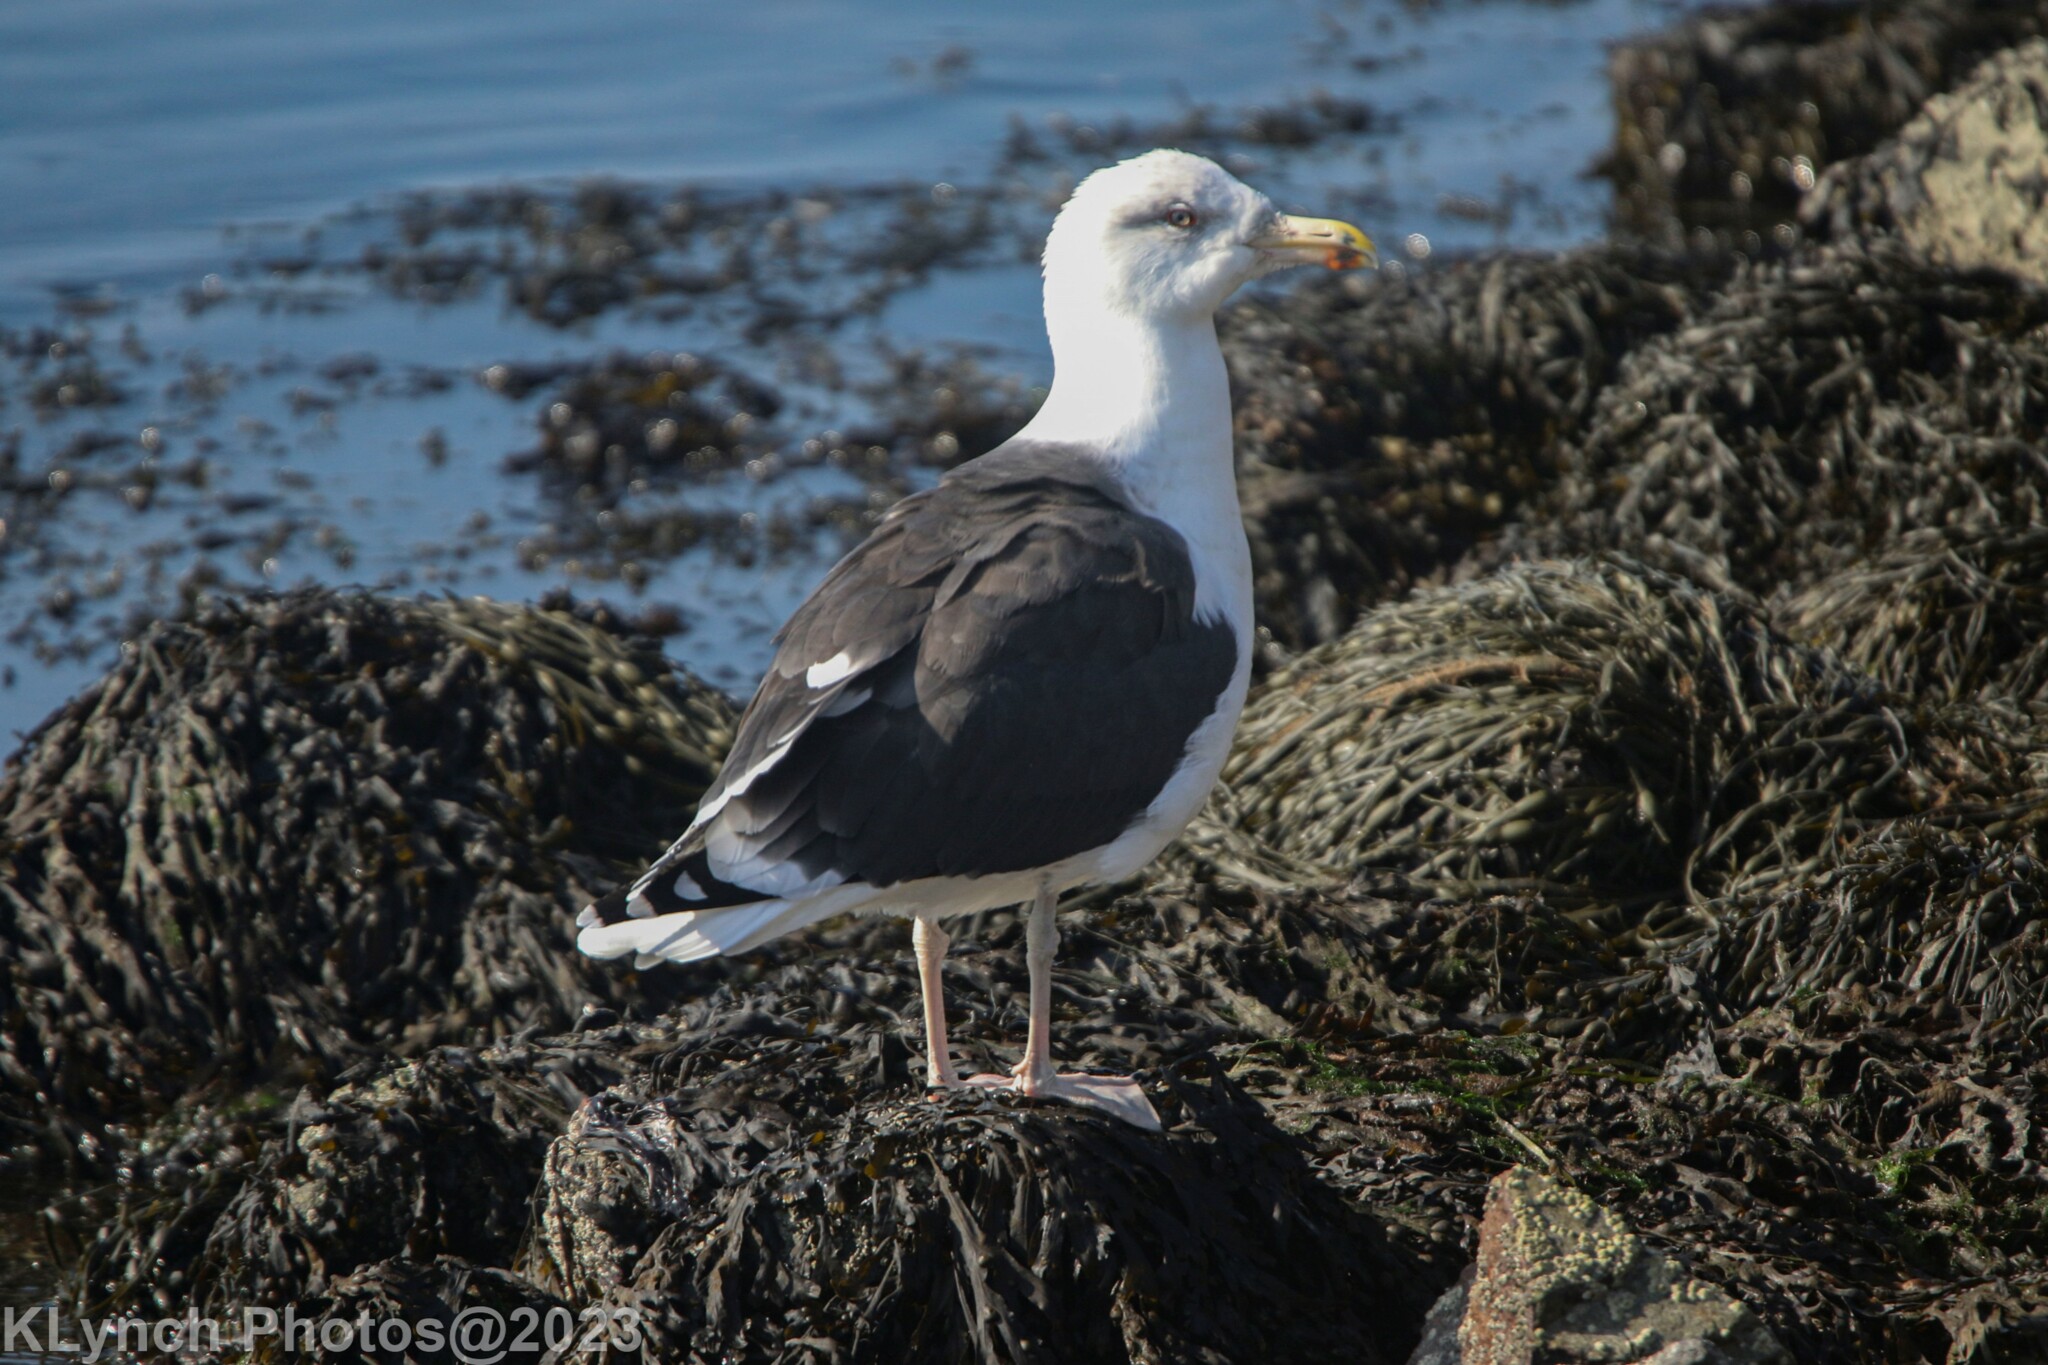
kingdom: Animalia
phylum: Chordata
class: Aves
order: Charadriiformes
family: Laridae
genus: Larus
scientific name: Larus marinus
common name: Great black-backed gull
